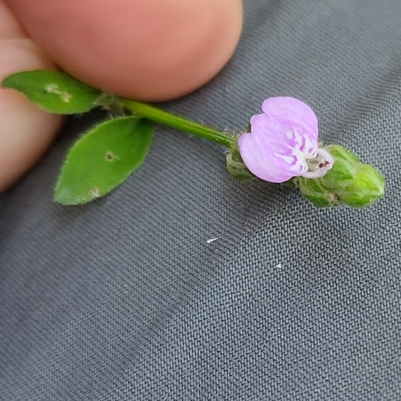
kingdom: Plantae
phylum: Tracheophyta
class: Magnoliopsida
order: Lamiales
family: Acanthaceae
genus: Rostellularia
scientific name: Rostellularia obtusa
